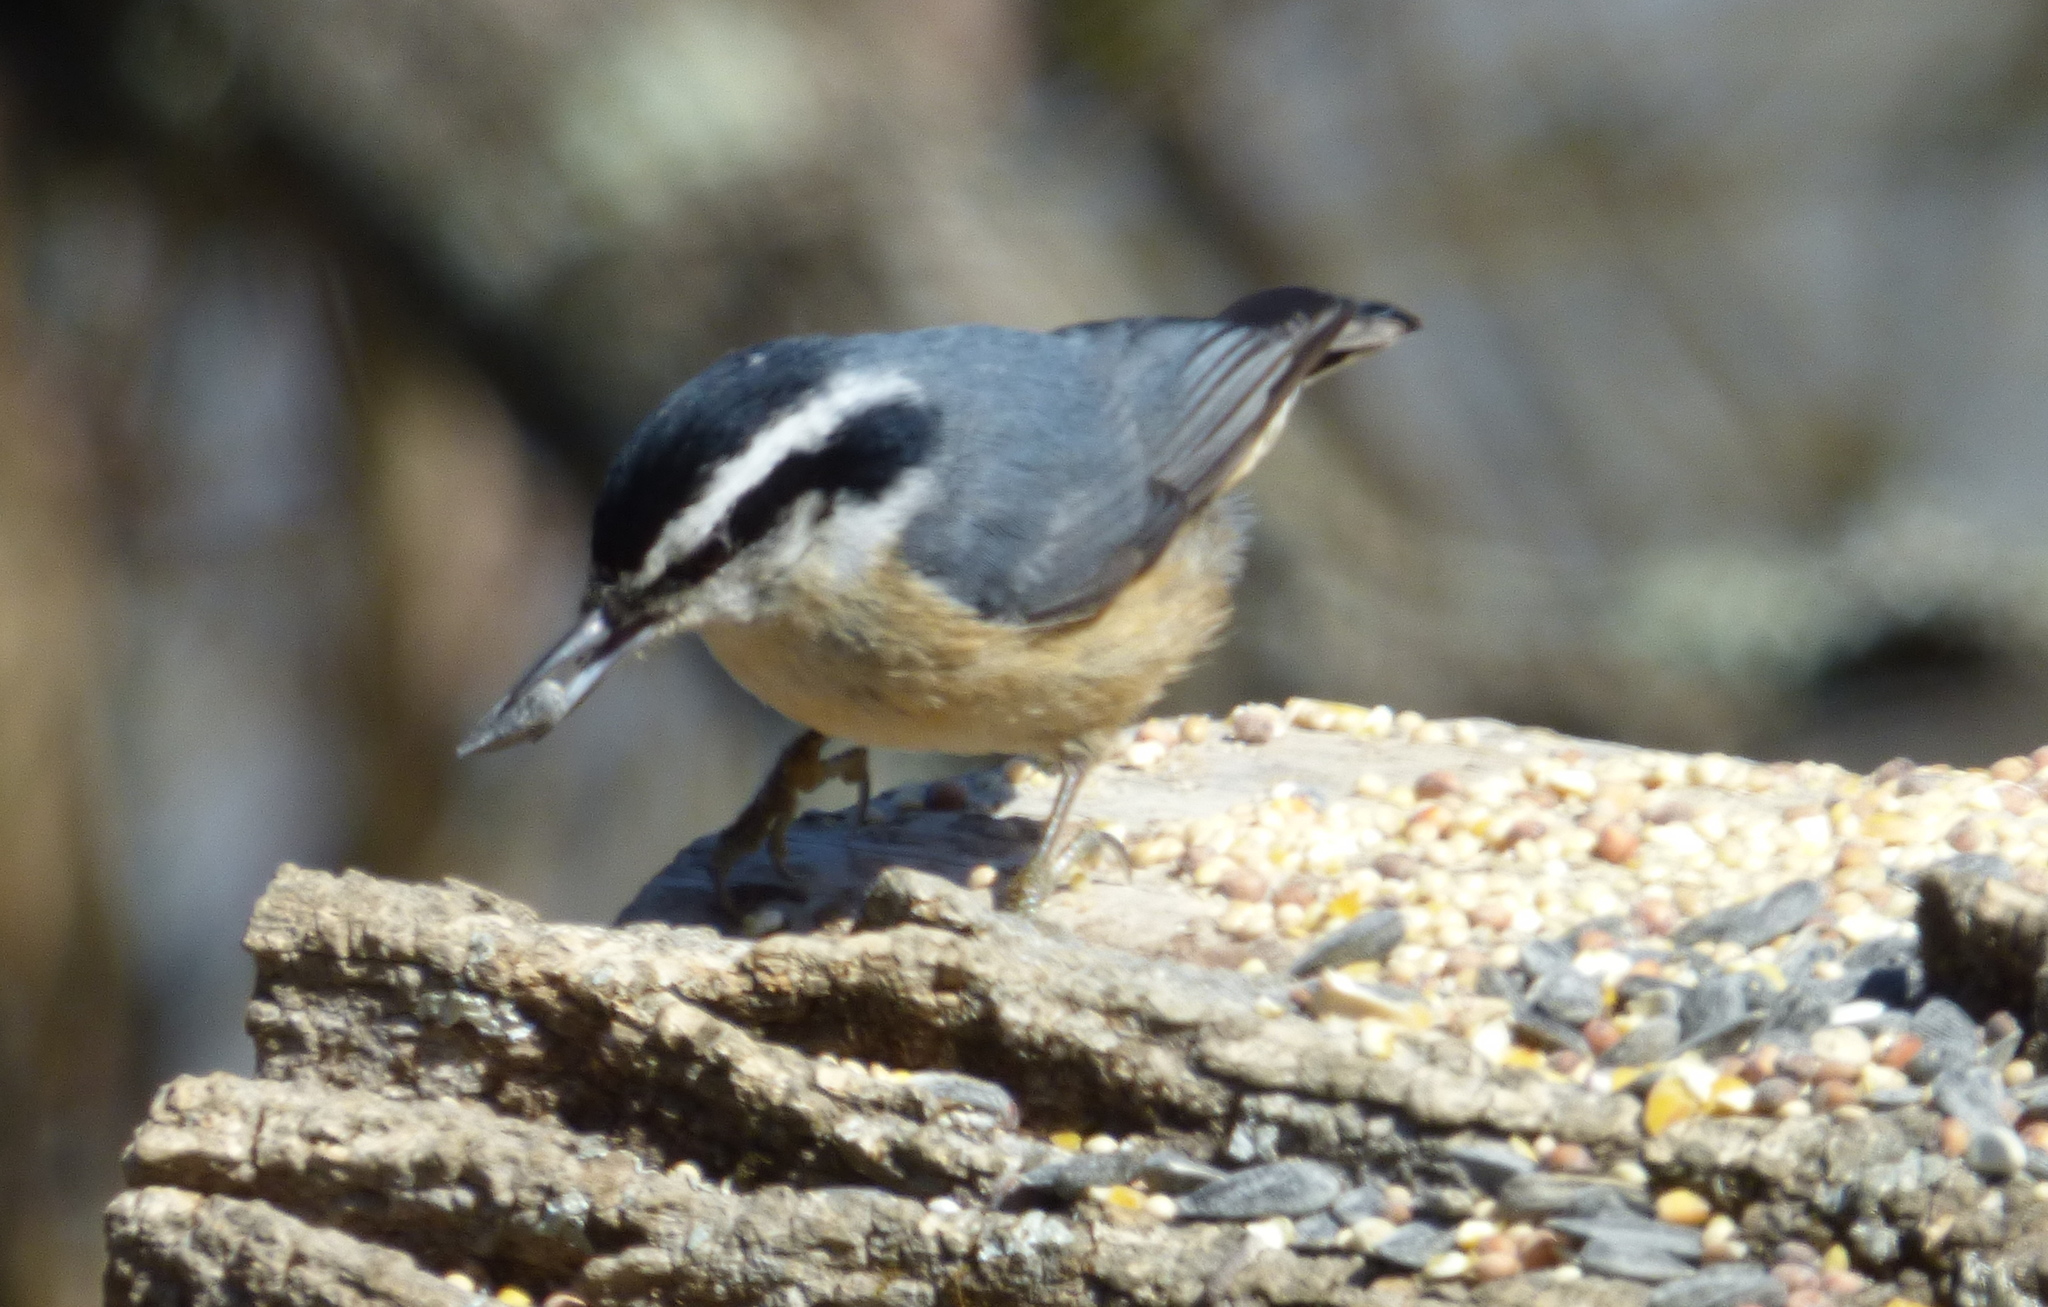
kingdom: Animalia
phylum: Chordata
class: Aves
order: Passeriformes
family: Sittidae
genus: Sitta
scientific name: Sitta canadensis
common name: Red-breasted nuthatch
